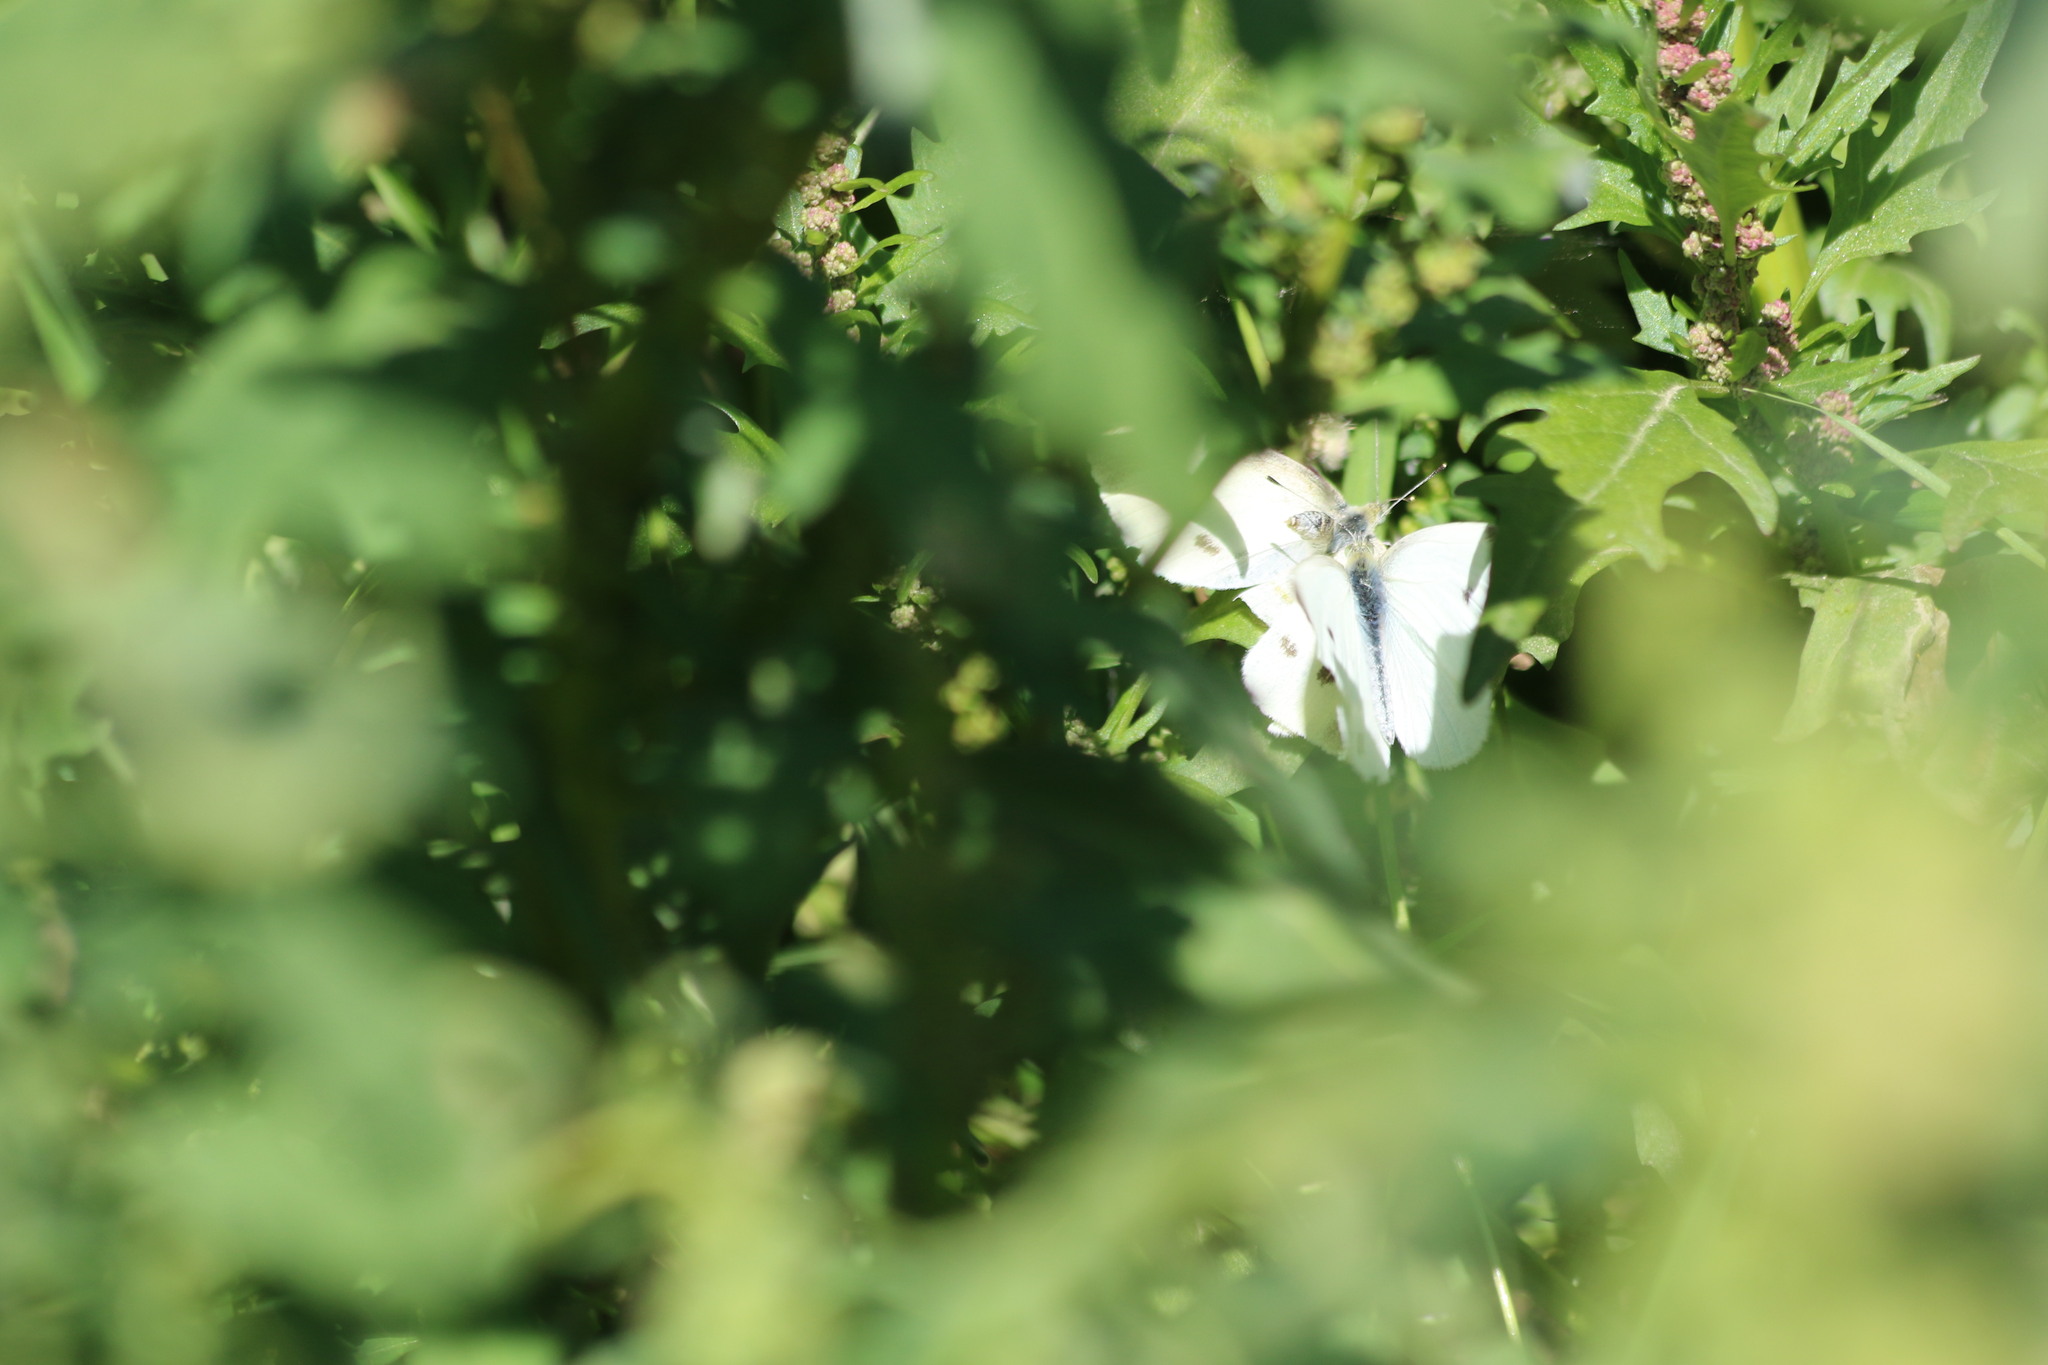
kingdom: Animalia
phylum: Arthropoda
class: Insecta
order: Lepidoptera
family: Pieridae
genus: Pieris
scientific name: Pieris rapae
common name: Small white
